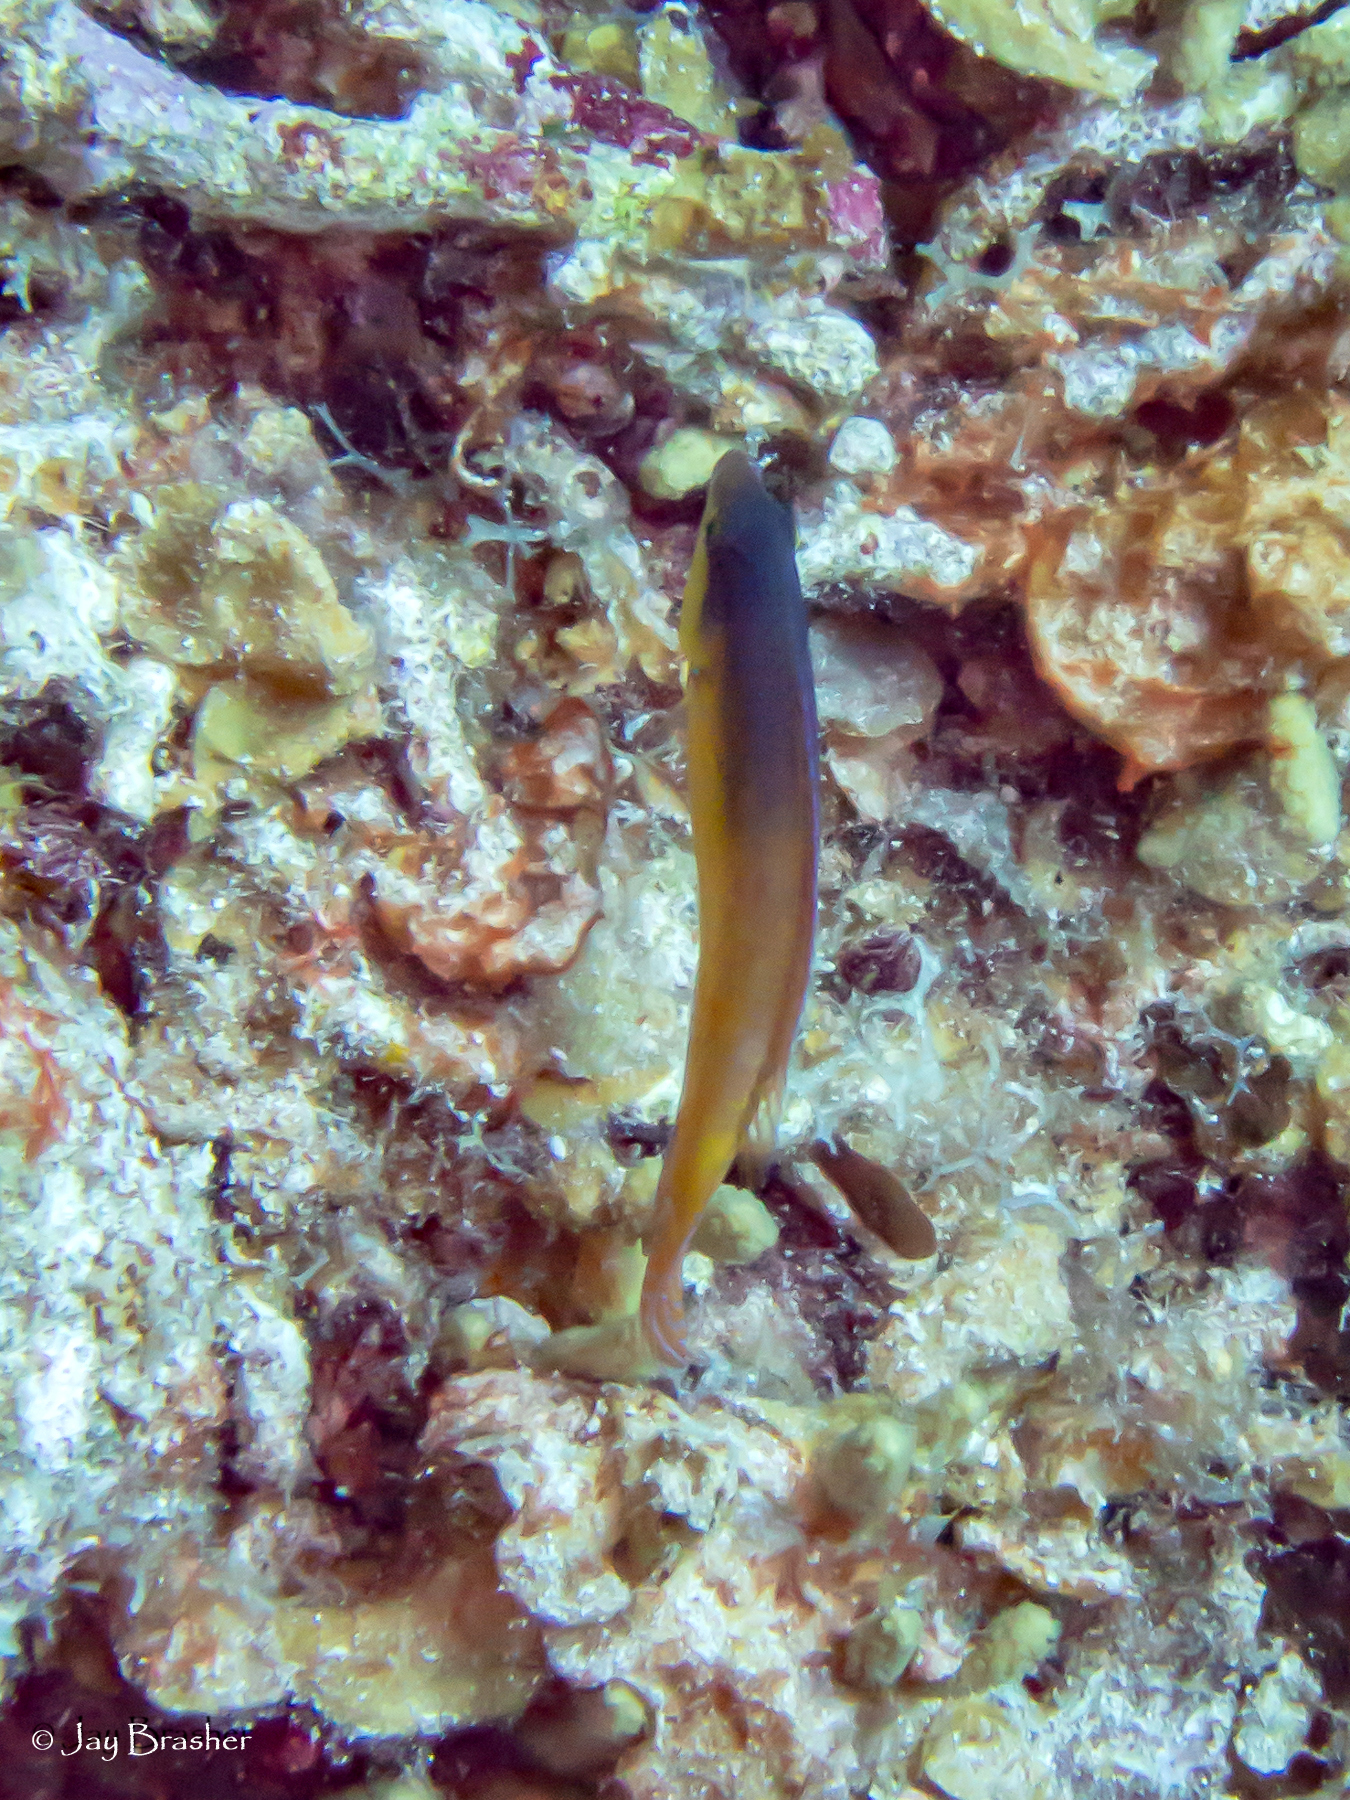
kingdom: Animalia
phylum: Chordata
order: Perciformes
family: Labridae
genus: Halichoeres
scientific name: Halichoeres garnoti
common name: Yellowhead wrasse
